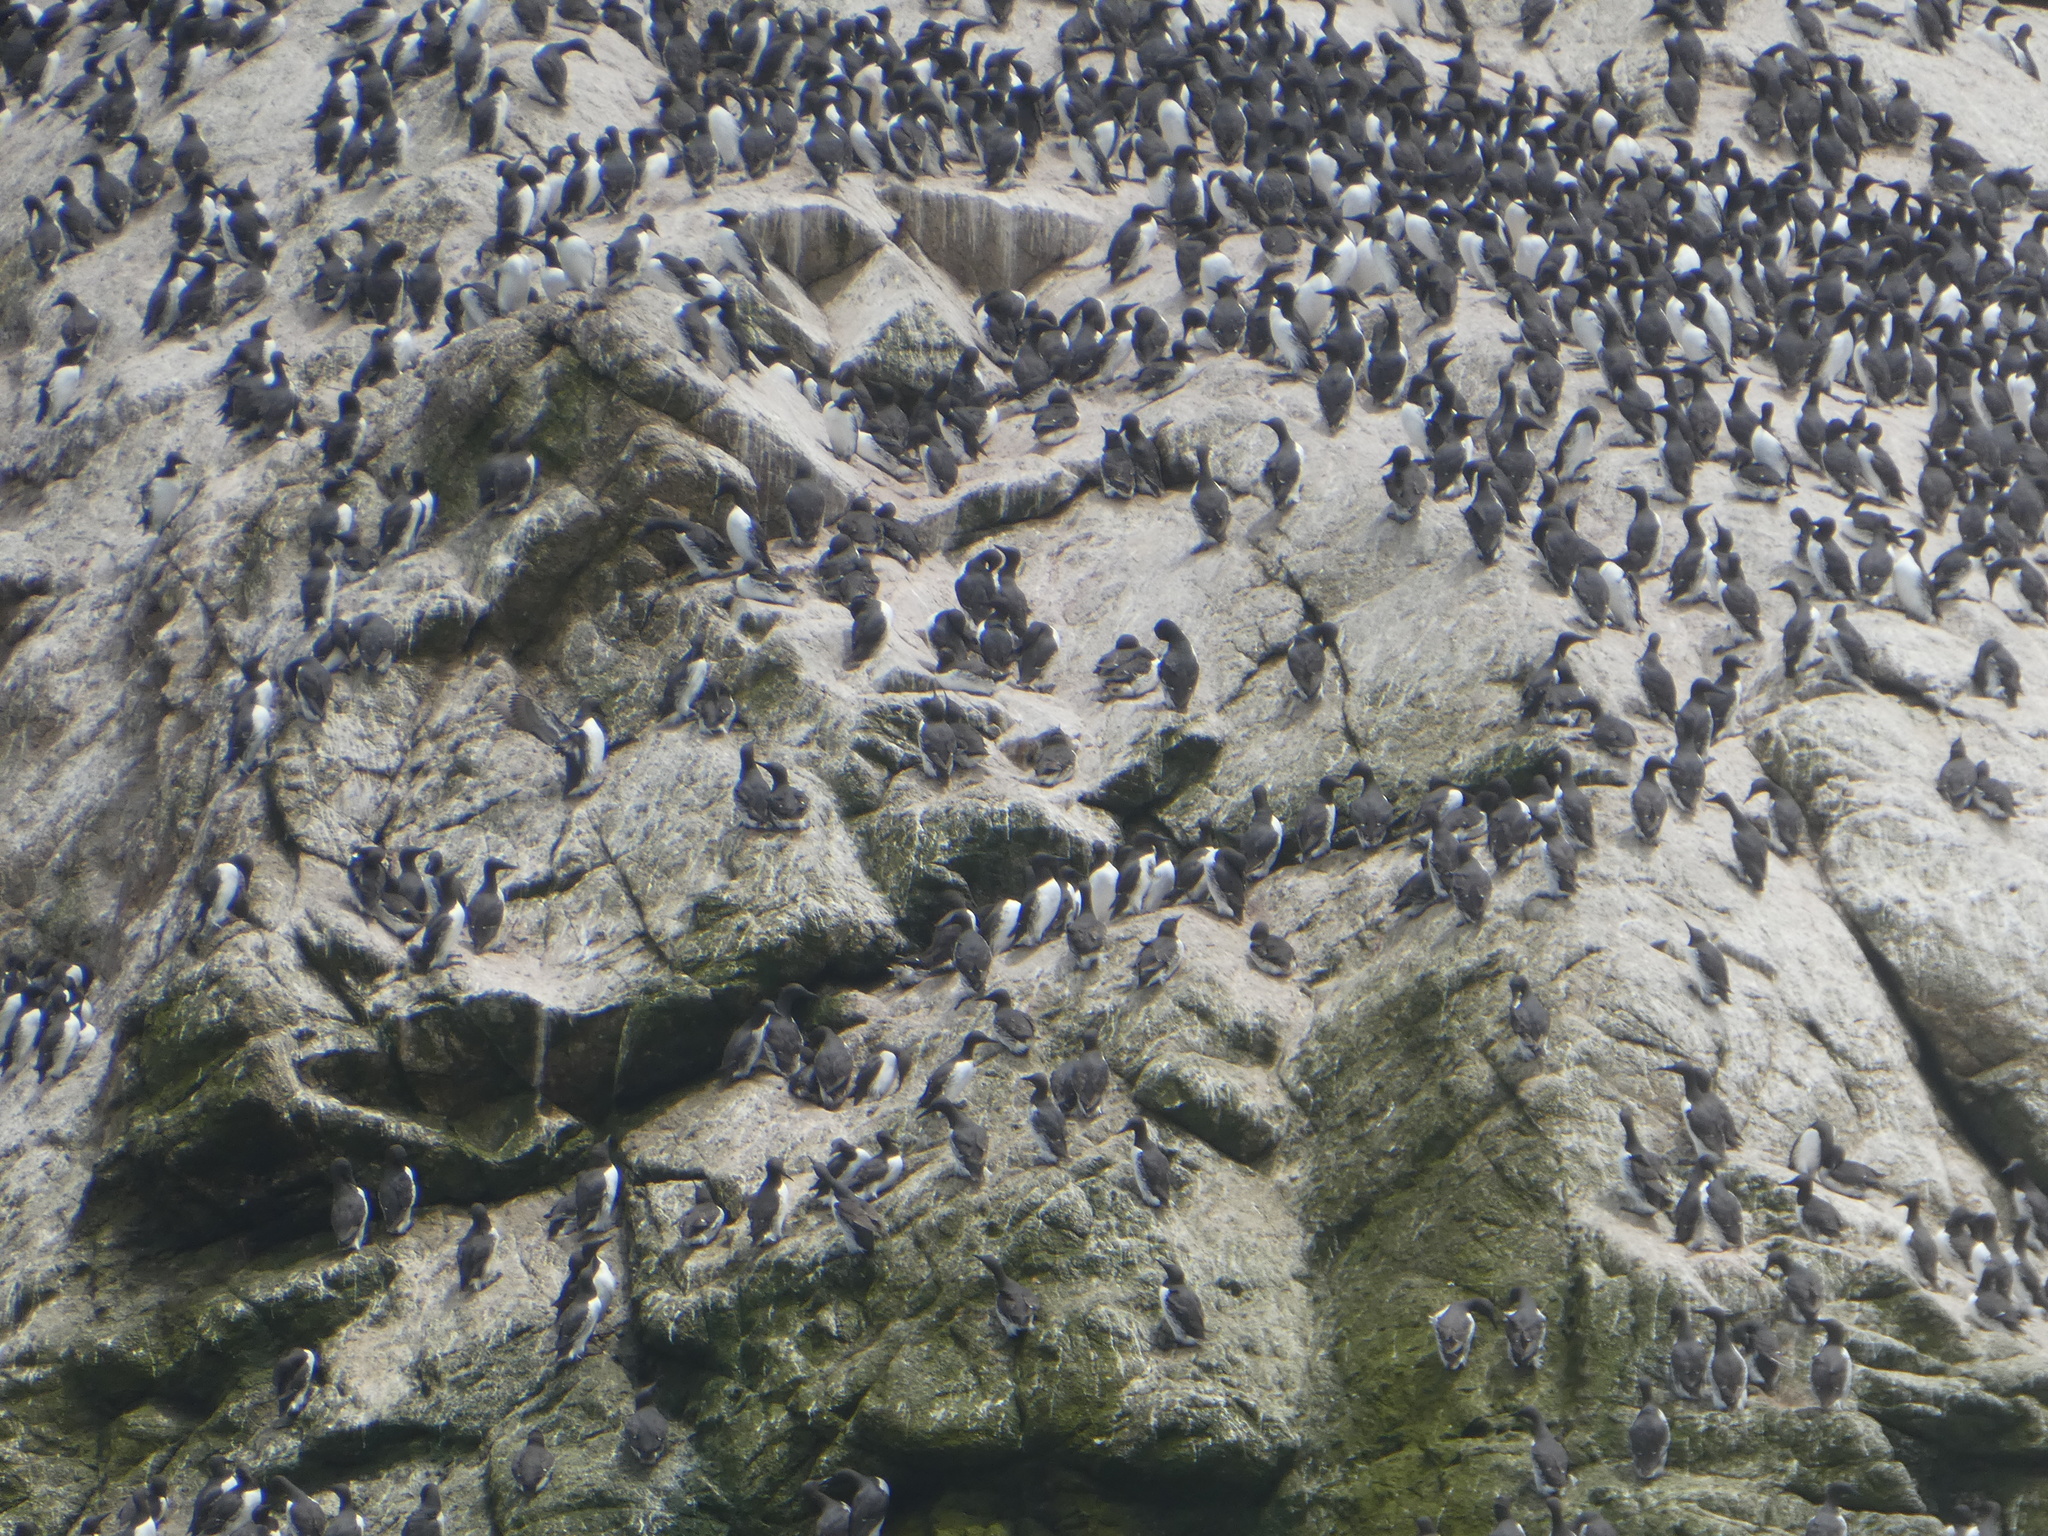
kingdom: Animalia
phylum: Chordata
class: Aves
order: Charadriiformes
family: Alcidae
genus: Uria
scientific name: Uria aalge
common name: Common murre
